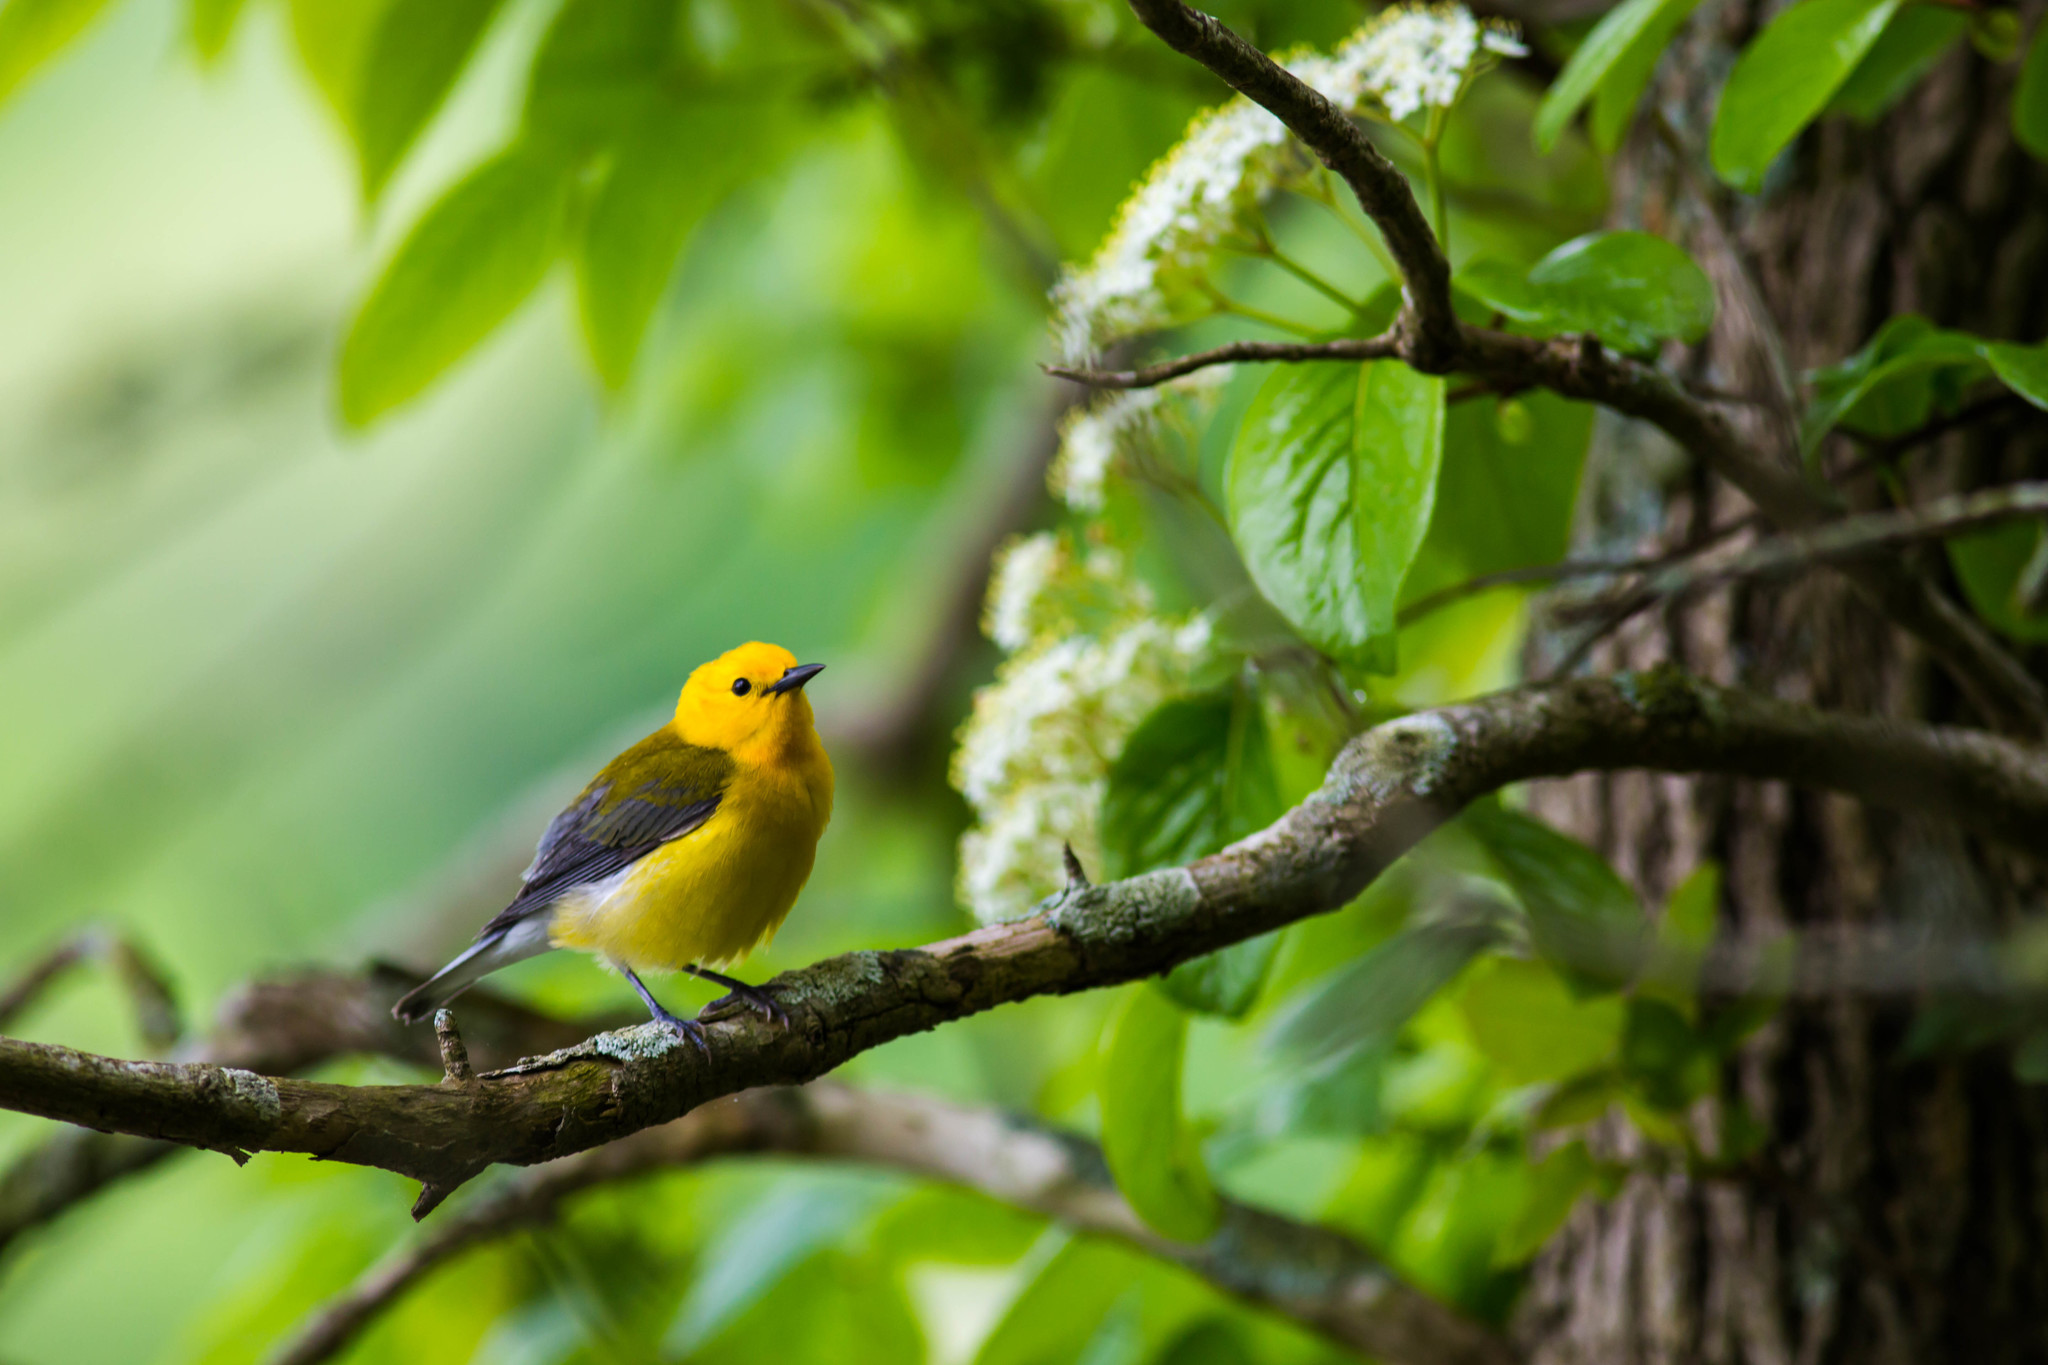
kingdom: Animalia
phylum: Chordata
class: Aves
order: Passeriformes
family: Parulidae
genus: Protonotaria
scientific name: Protonotaria citrea
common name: Prothonotary warbler
